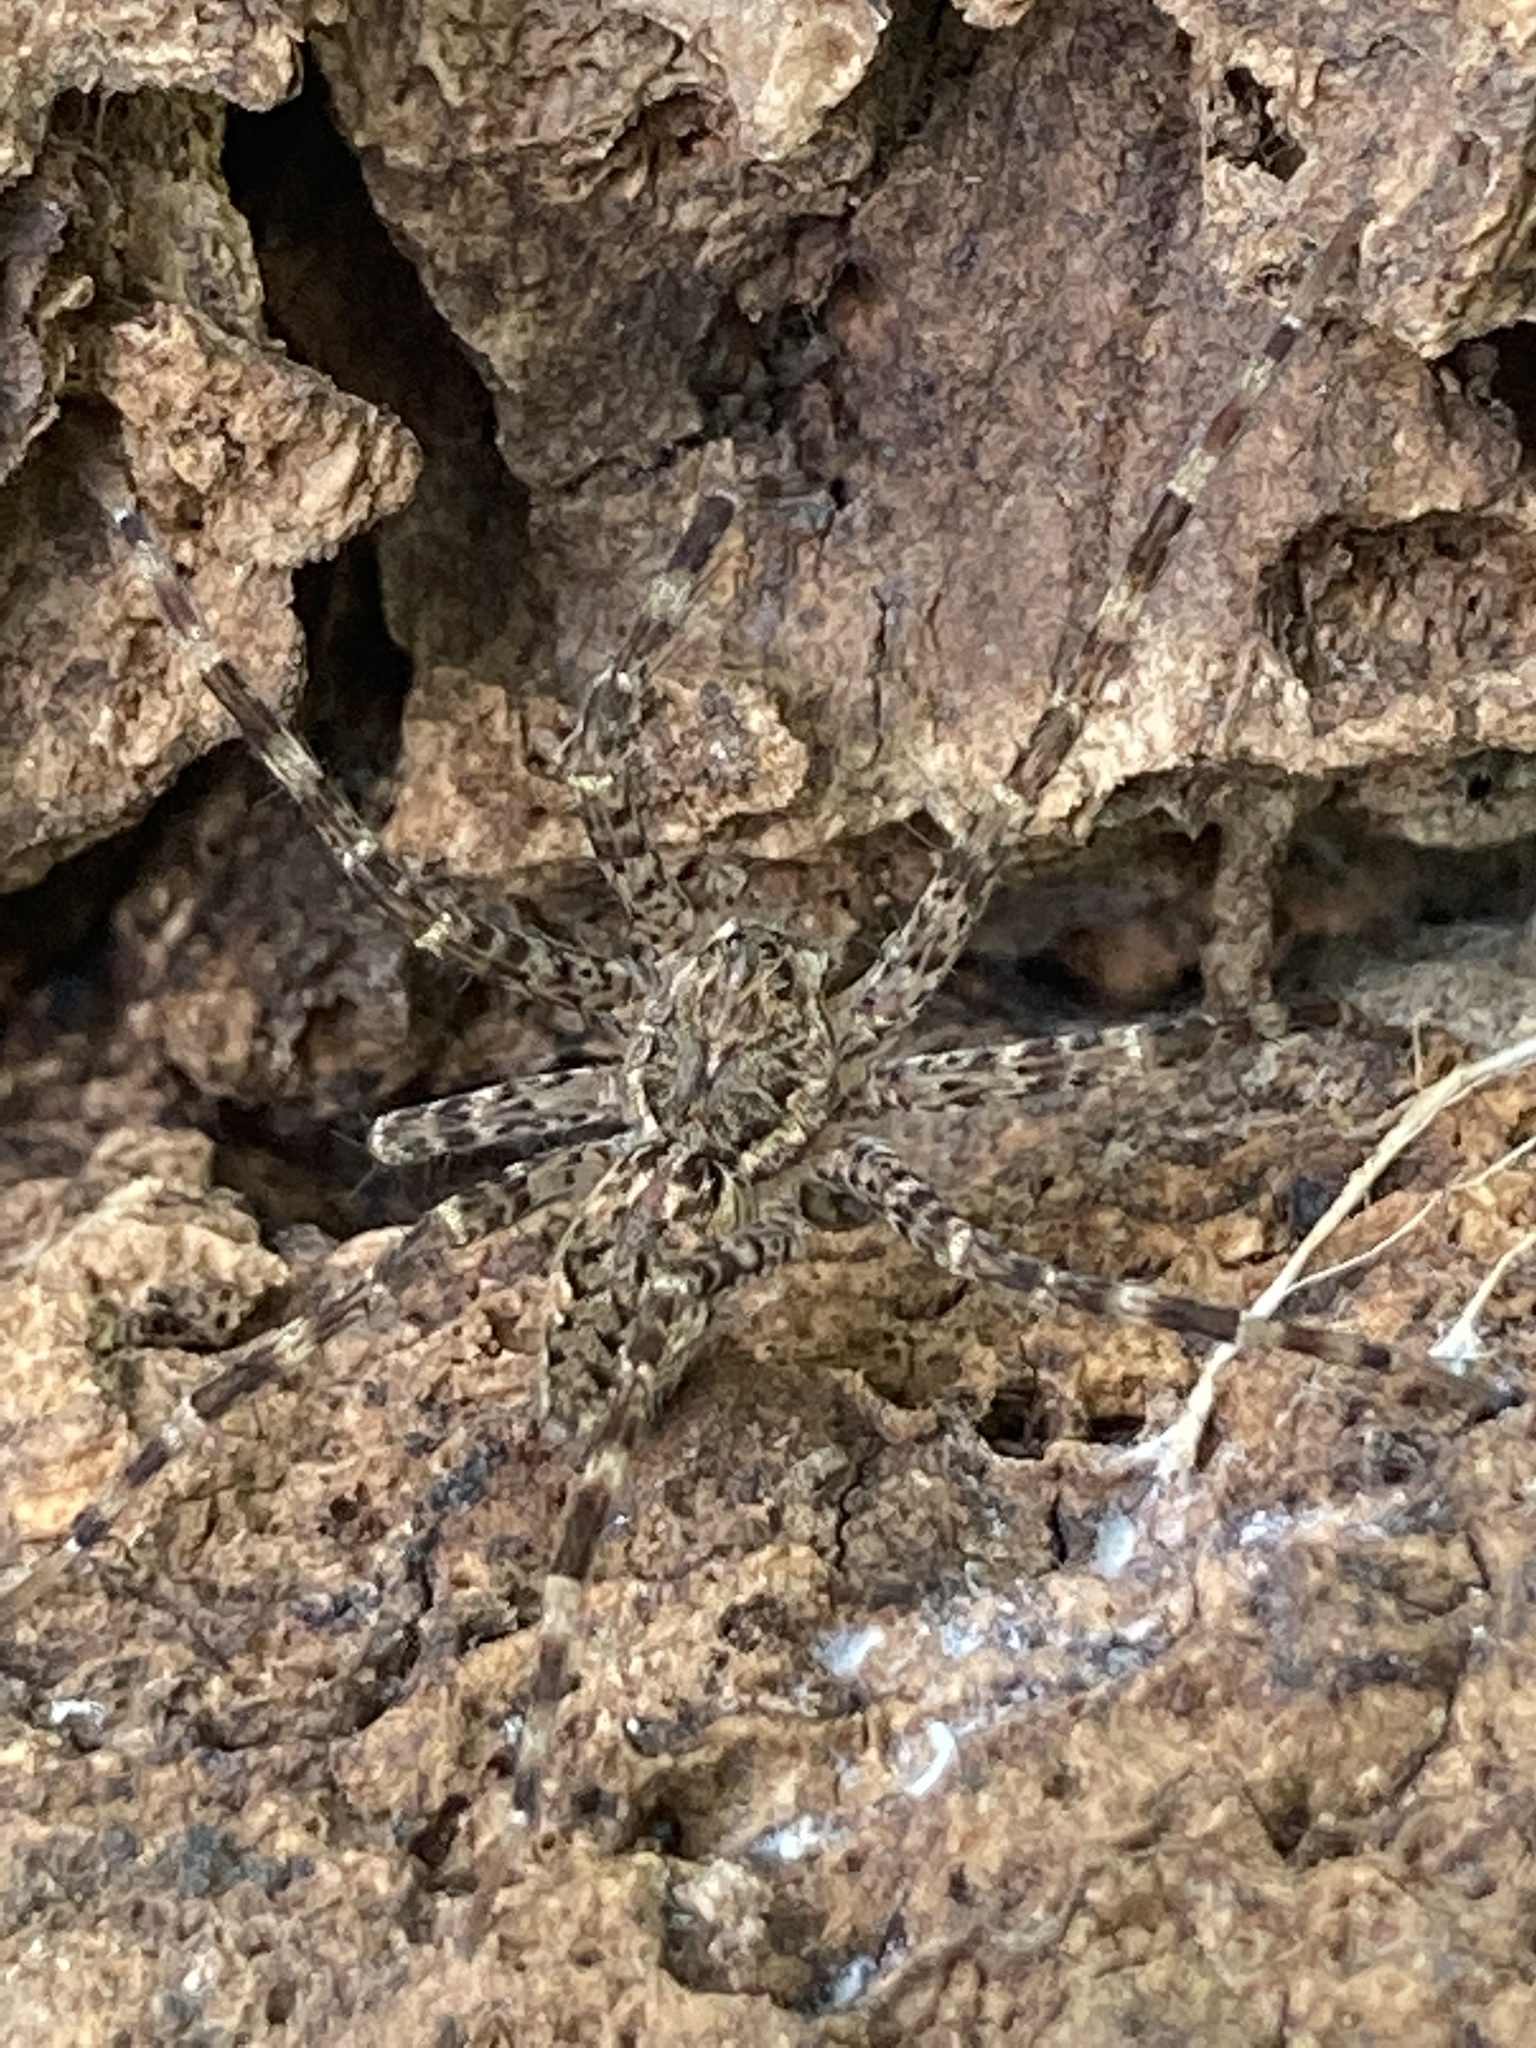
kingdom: Animalia
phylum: Arthropoda
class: Arachnida
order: Araneae
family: Pisauridae
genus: Dolomedes
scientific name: Dolomedes tenebrosus
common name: Dark fishing spider
